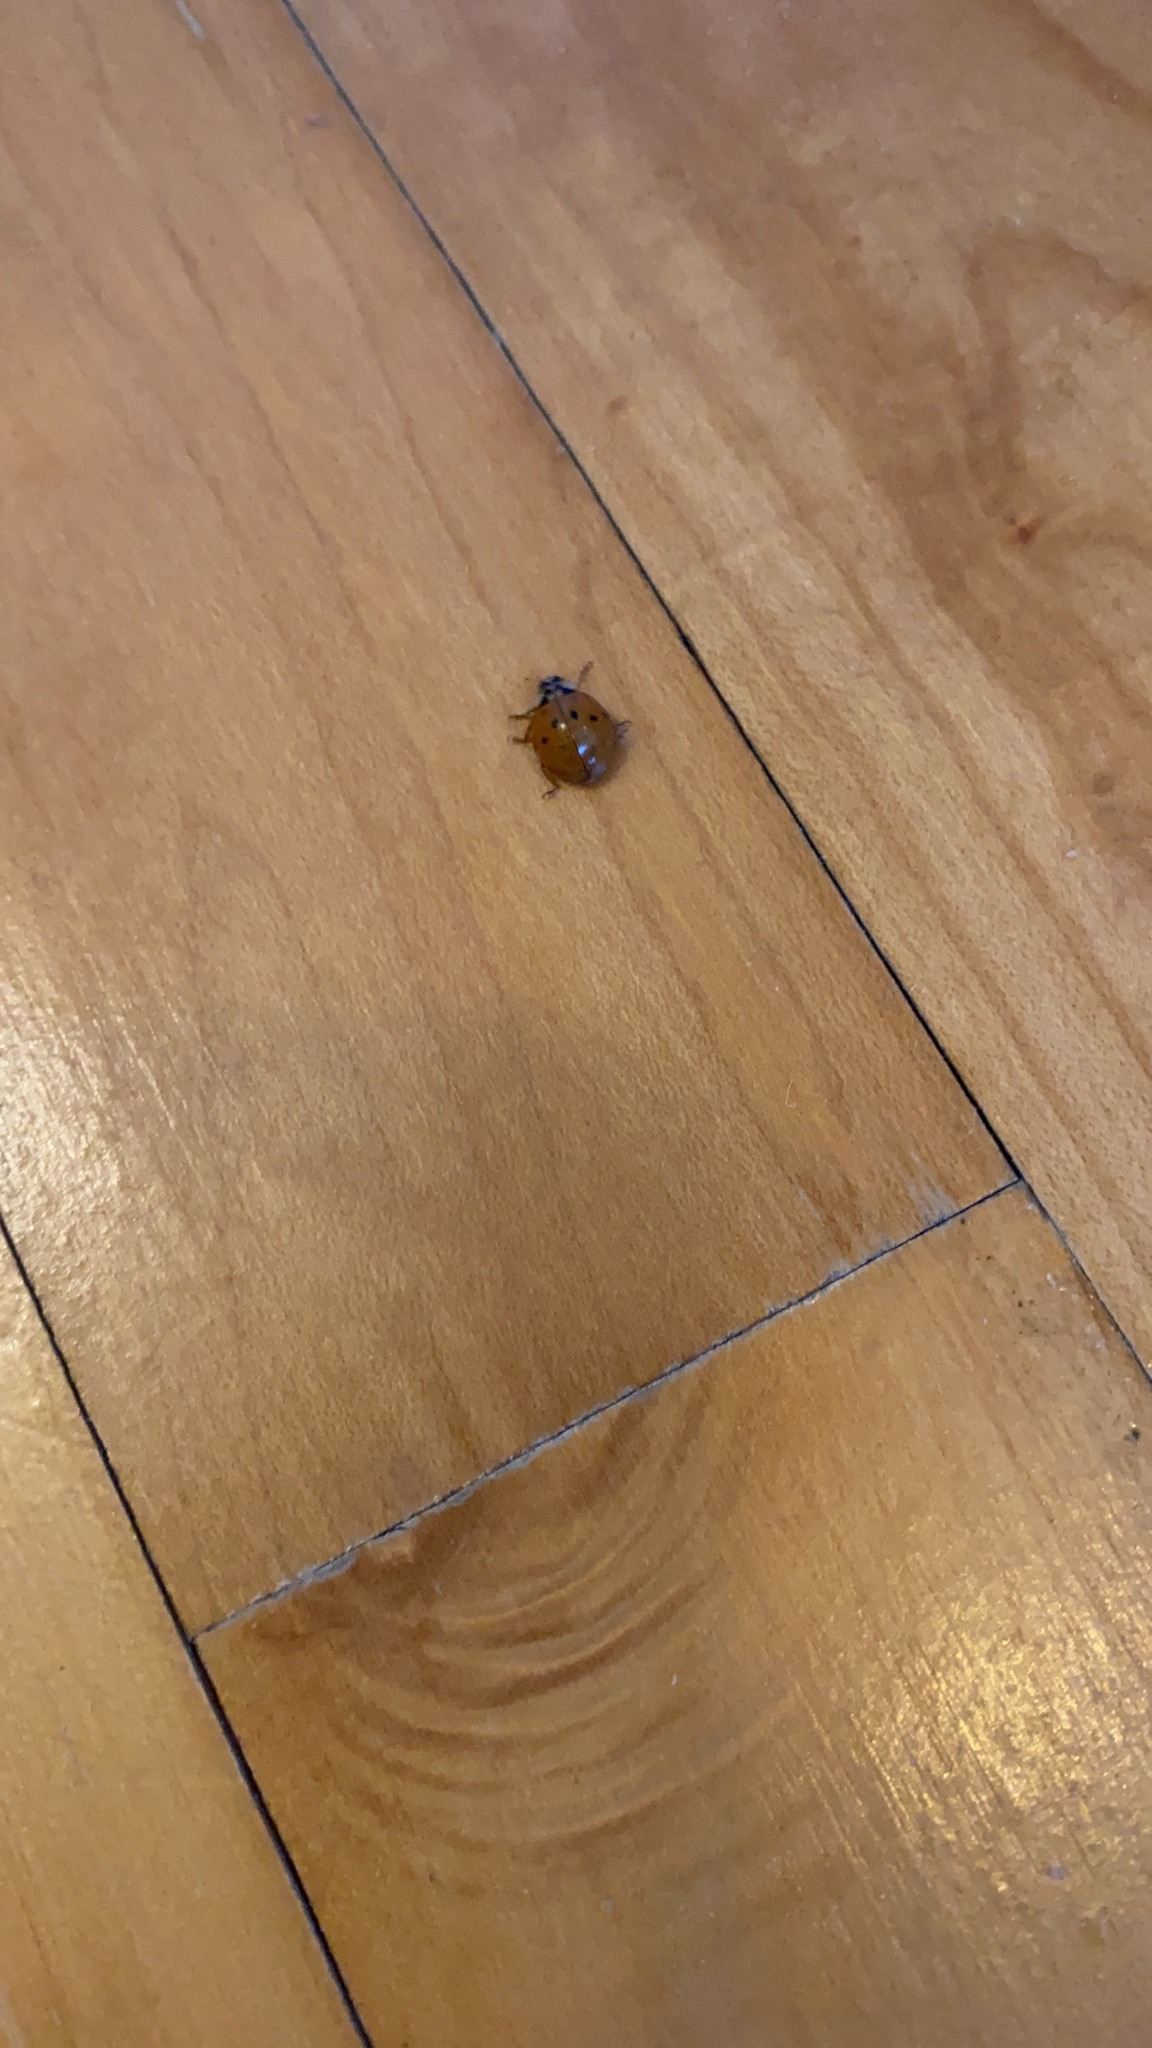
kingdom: Animalia
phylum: Arthropoda
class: Insecta
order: Coleoptera
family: Coccinellidae
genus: Harmonia
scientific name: Harmonia axyridis
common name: Harlequin ladybird
